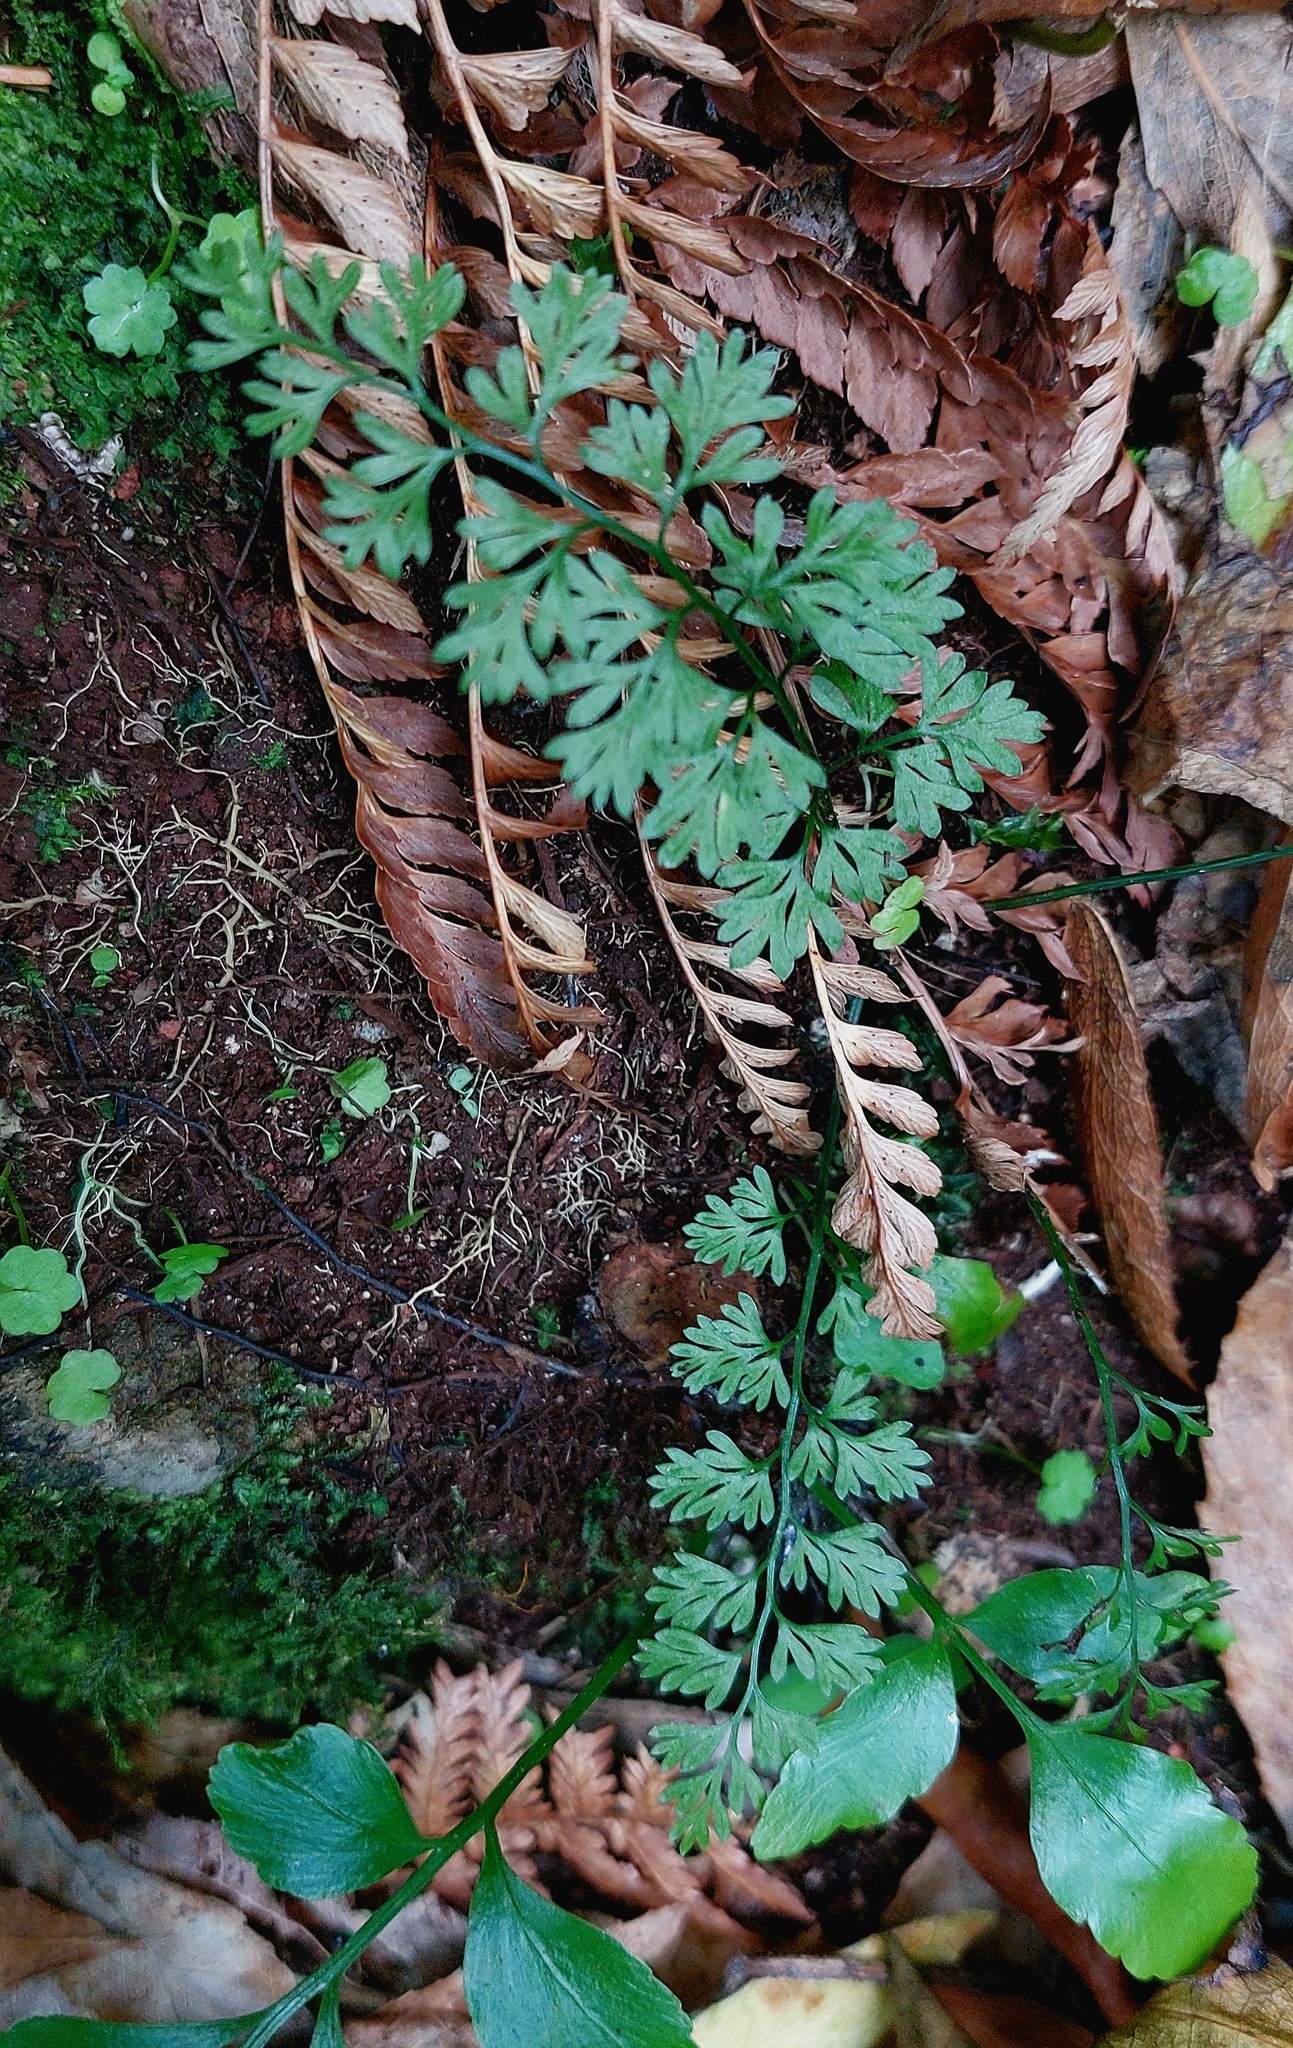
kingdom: Plantae
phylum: Tracheophyta
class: Polypodiopsida
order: Polypodiales
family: Aspleniaceae
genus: Asplenium
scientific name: Asplenium hookerianum
